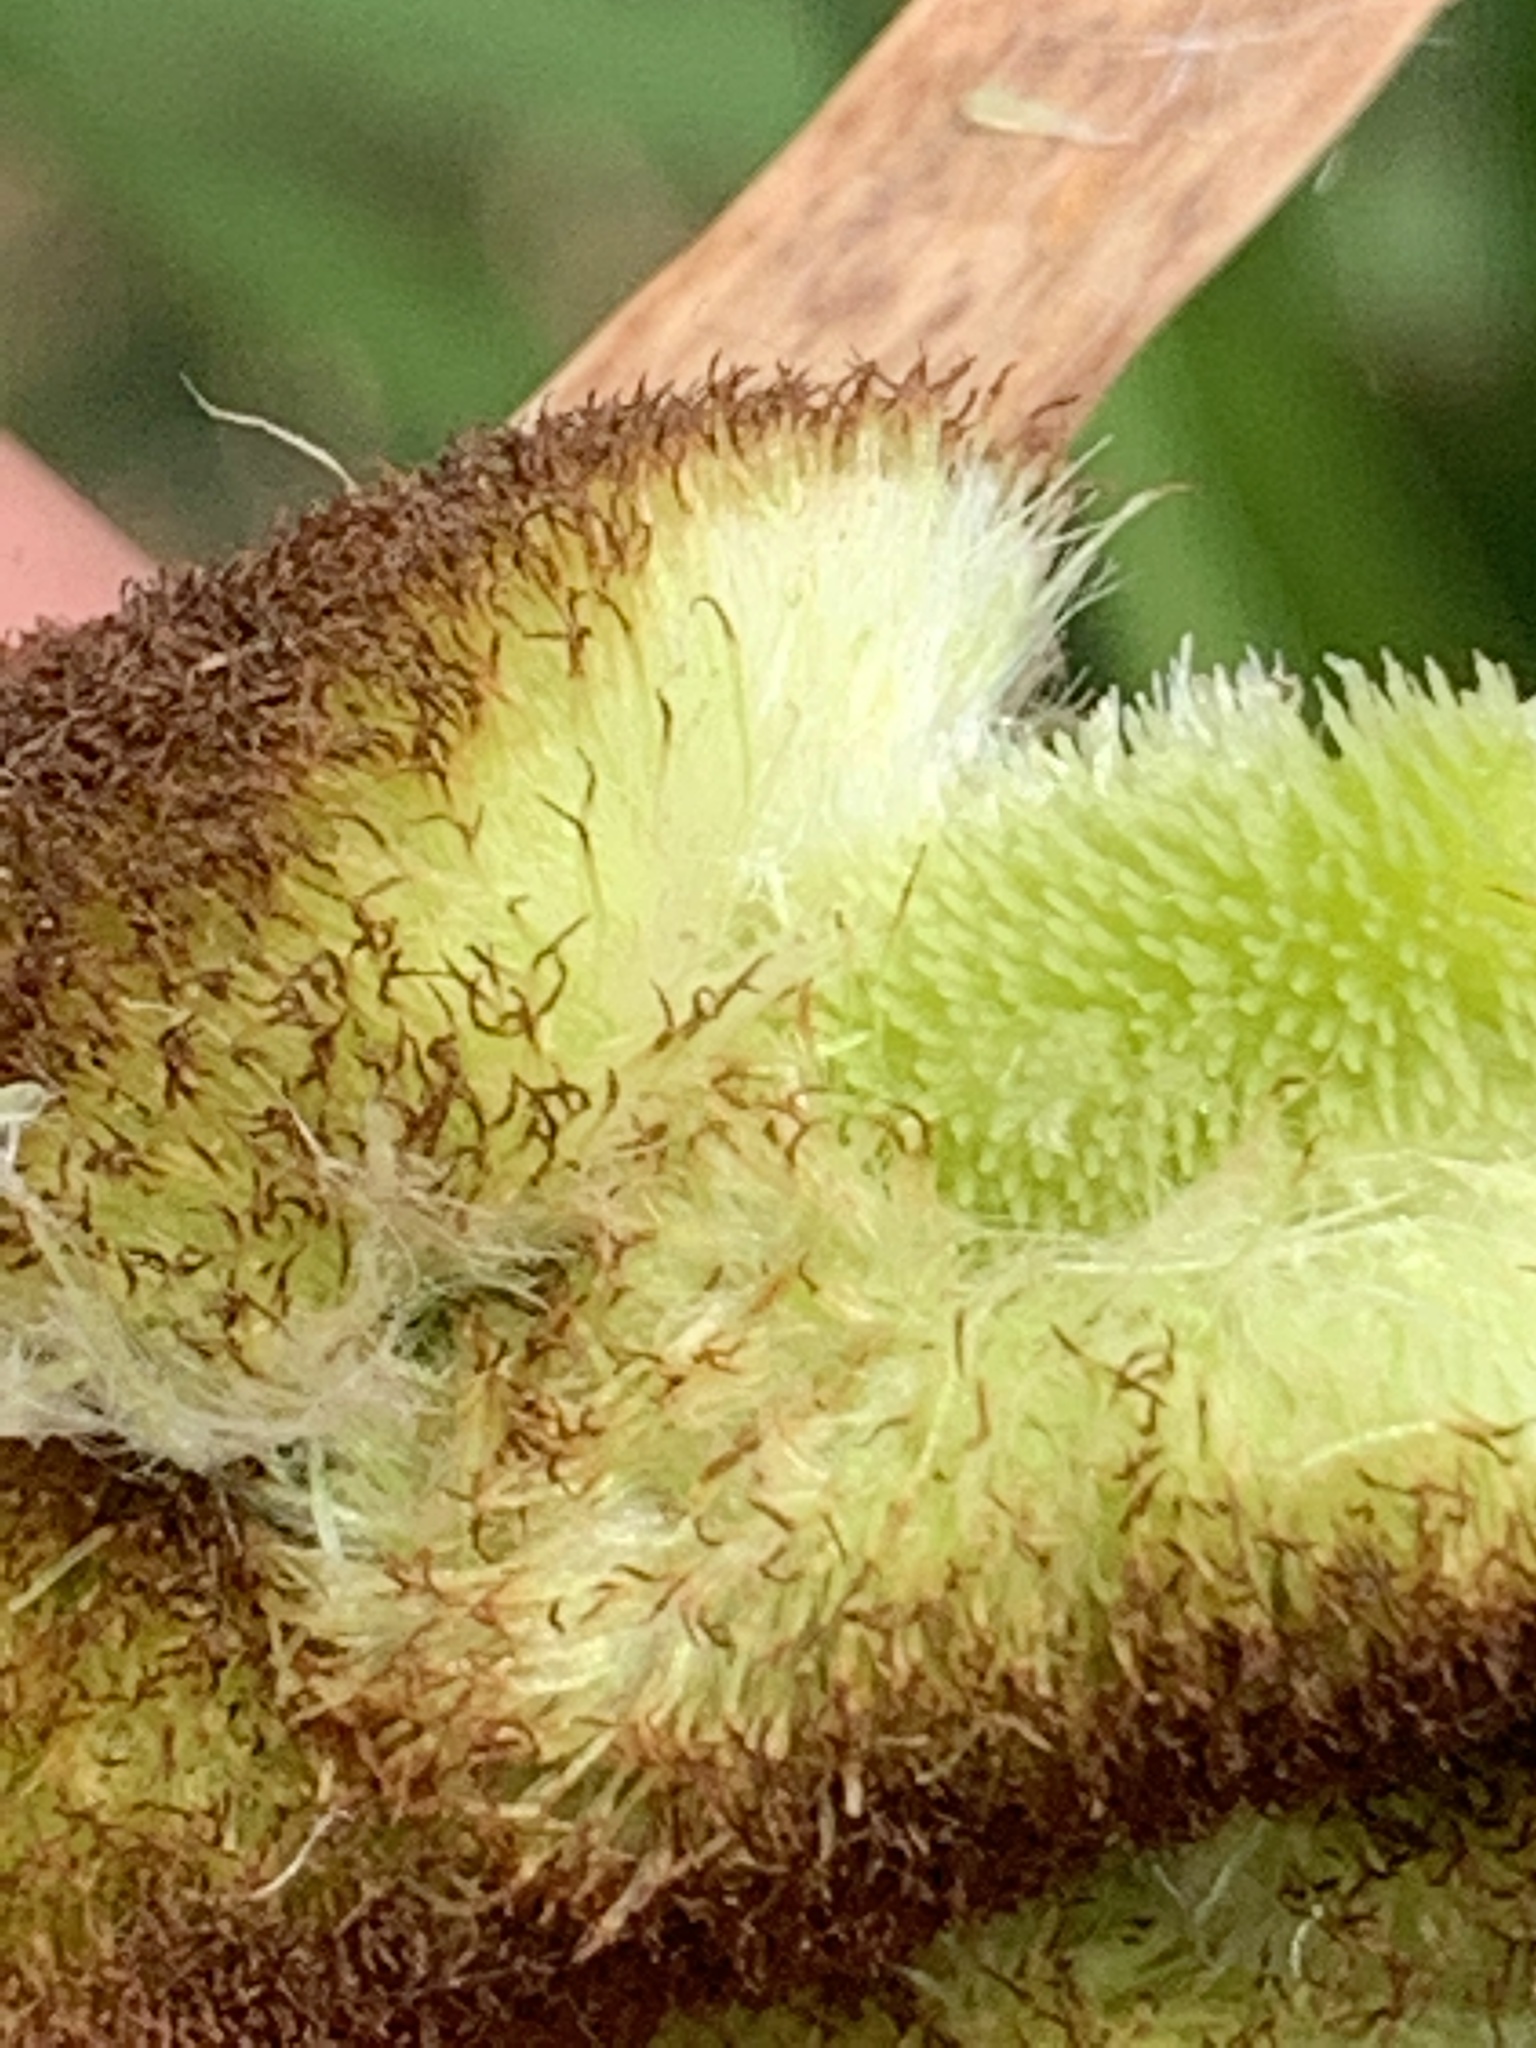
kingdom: Plantae
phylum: Tracheophyta
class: Liliopsida
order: Poales
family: Typhaceae
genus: Typha
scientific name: Typha angustifolia
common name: Lesser bulrush
